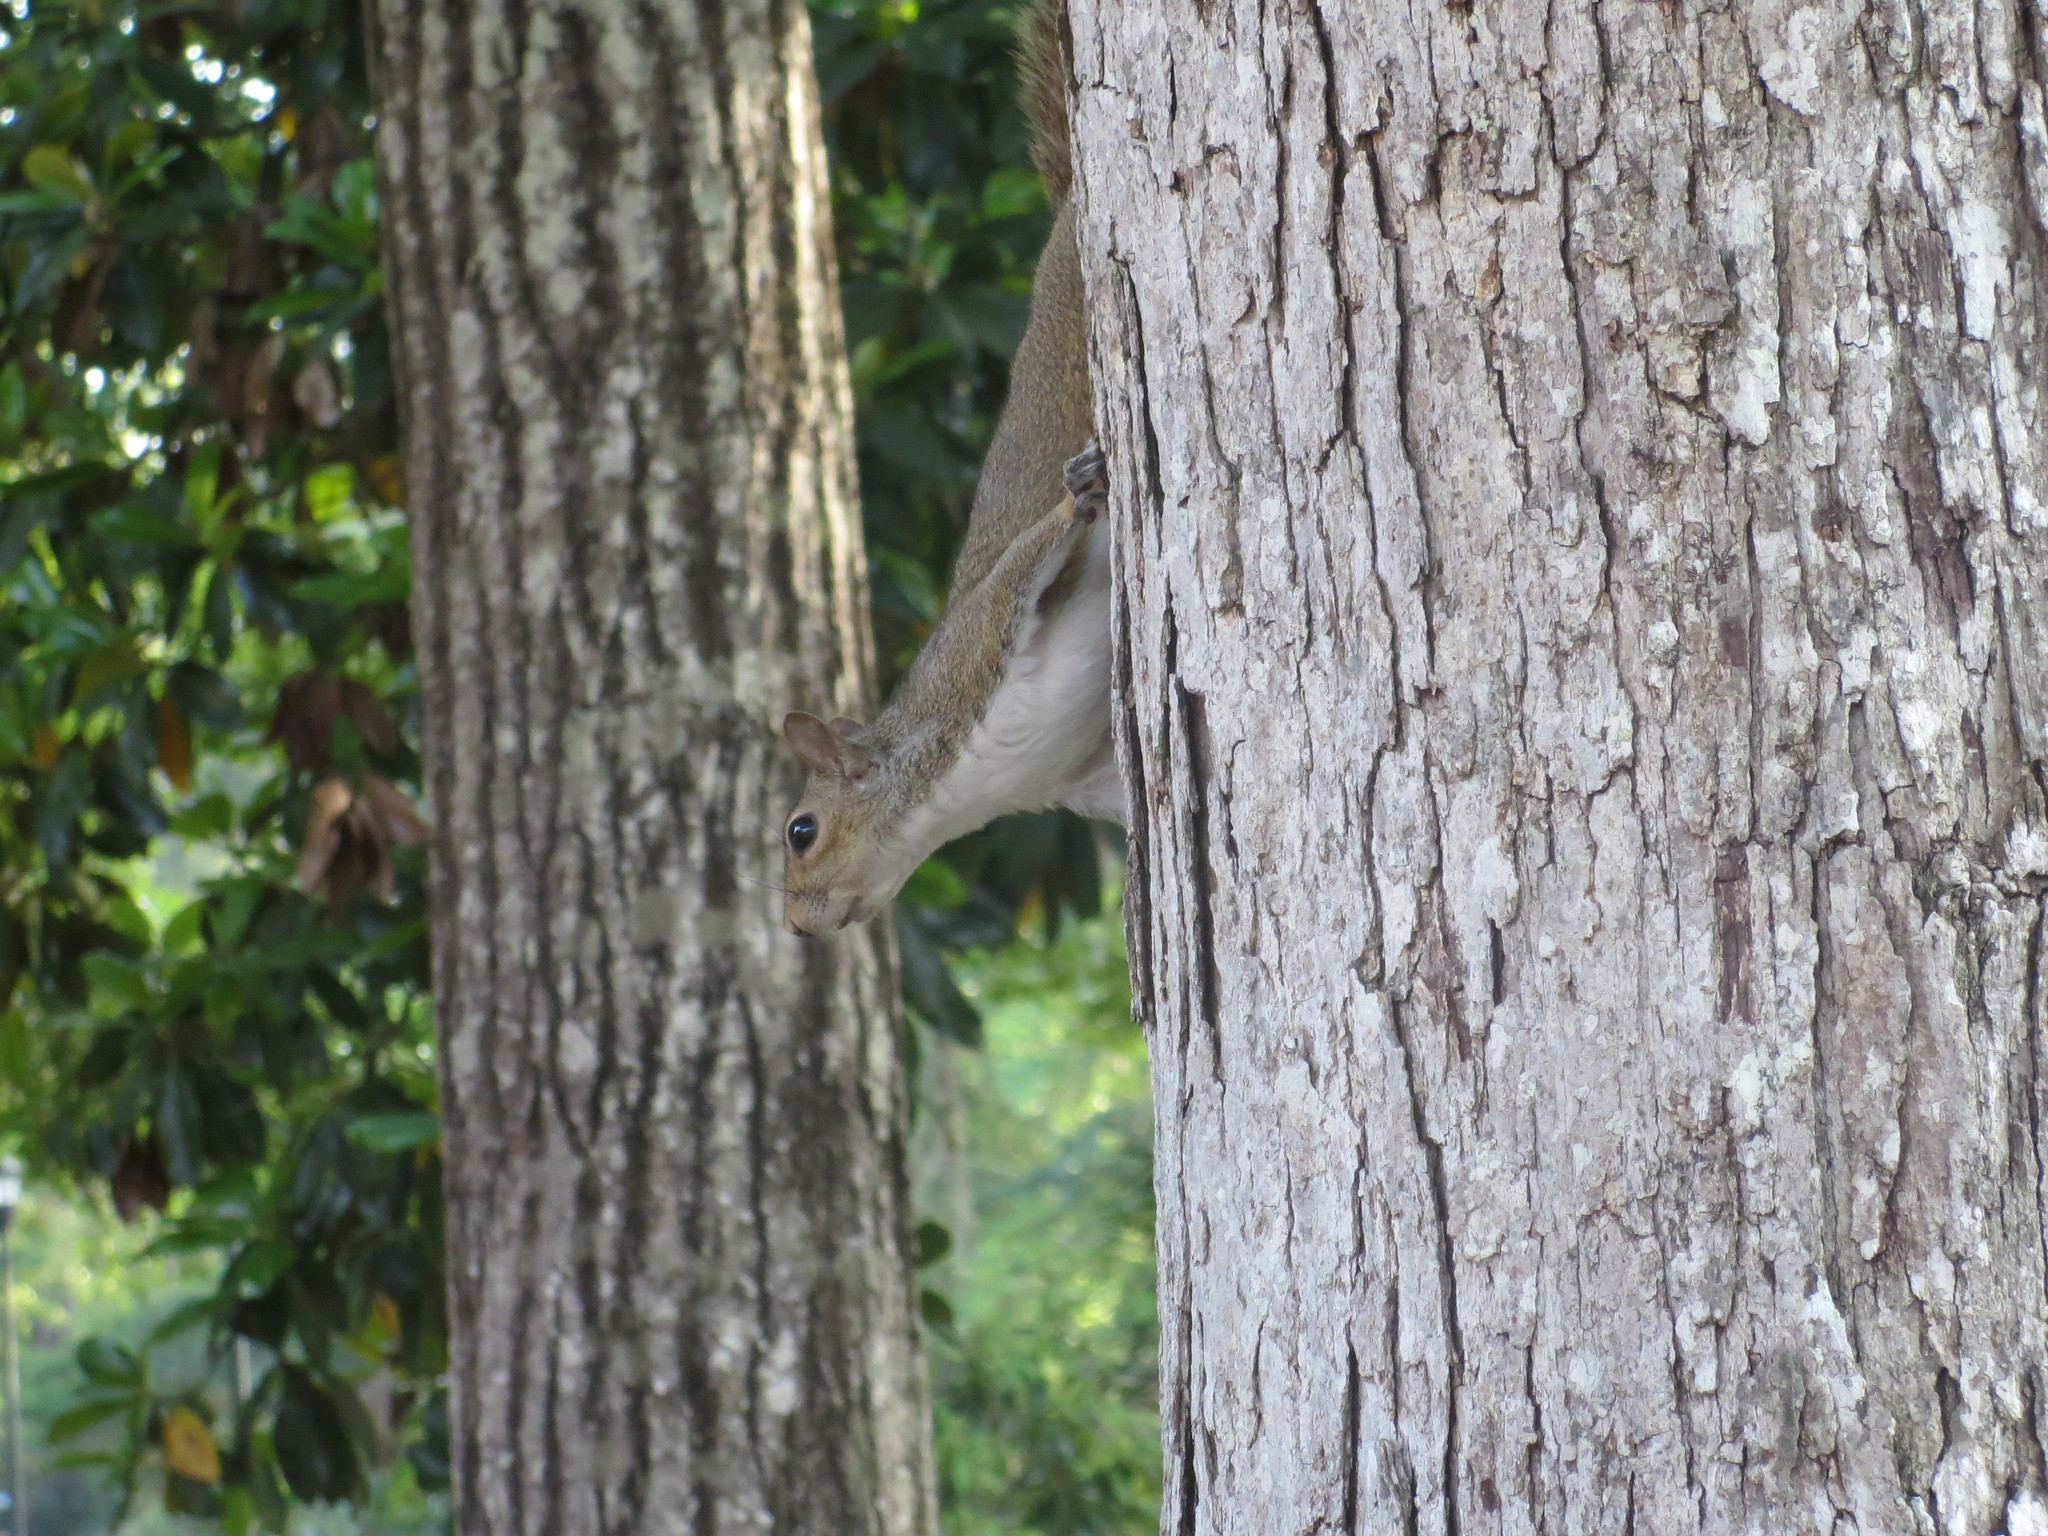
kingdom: Animalia
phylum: Chordata
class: Mammalia
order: Rodentia
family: Sciuridae
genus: Sciurus
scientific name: Sciurus carolinensis
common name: Eastern gray squirrel
